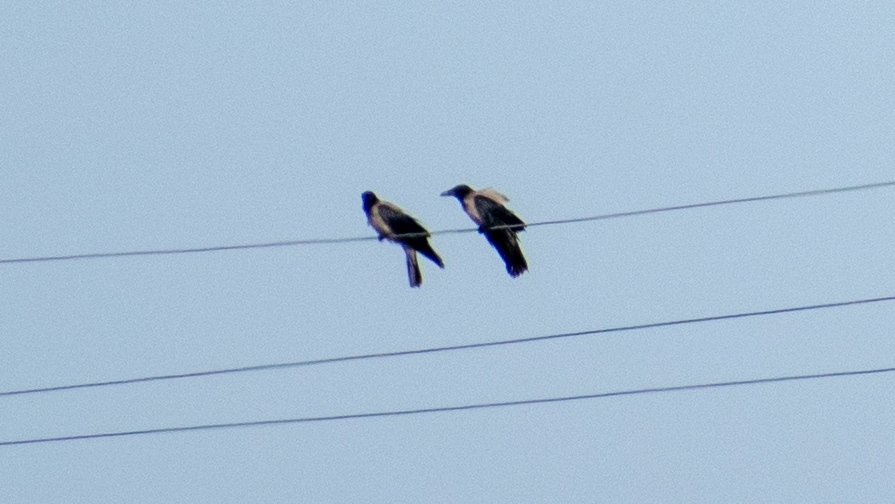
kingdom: Animalia
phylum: Chordata
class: Aves
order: Passeriformes
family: Corvidae
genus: Corvus
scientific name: Corvus cornix
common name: Hooded crow
